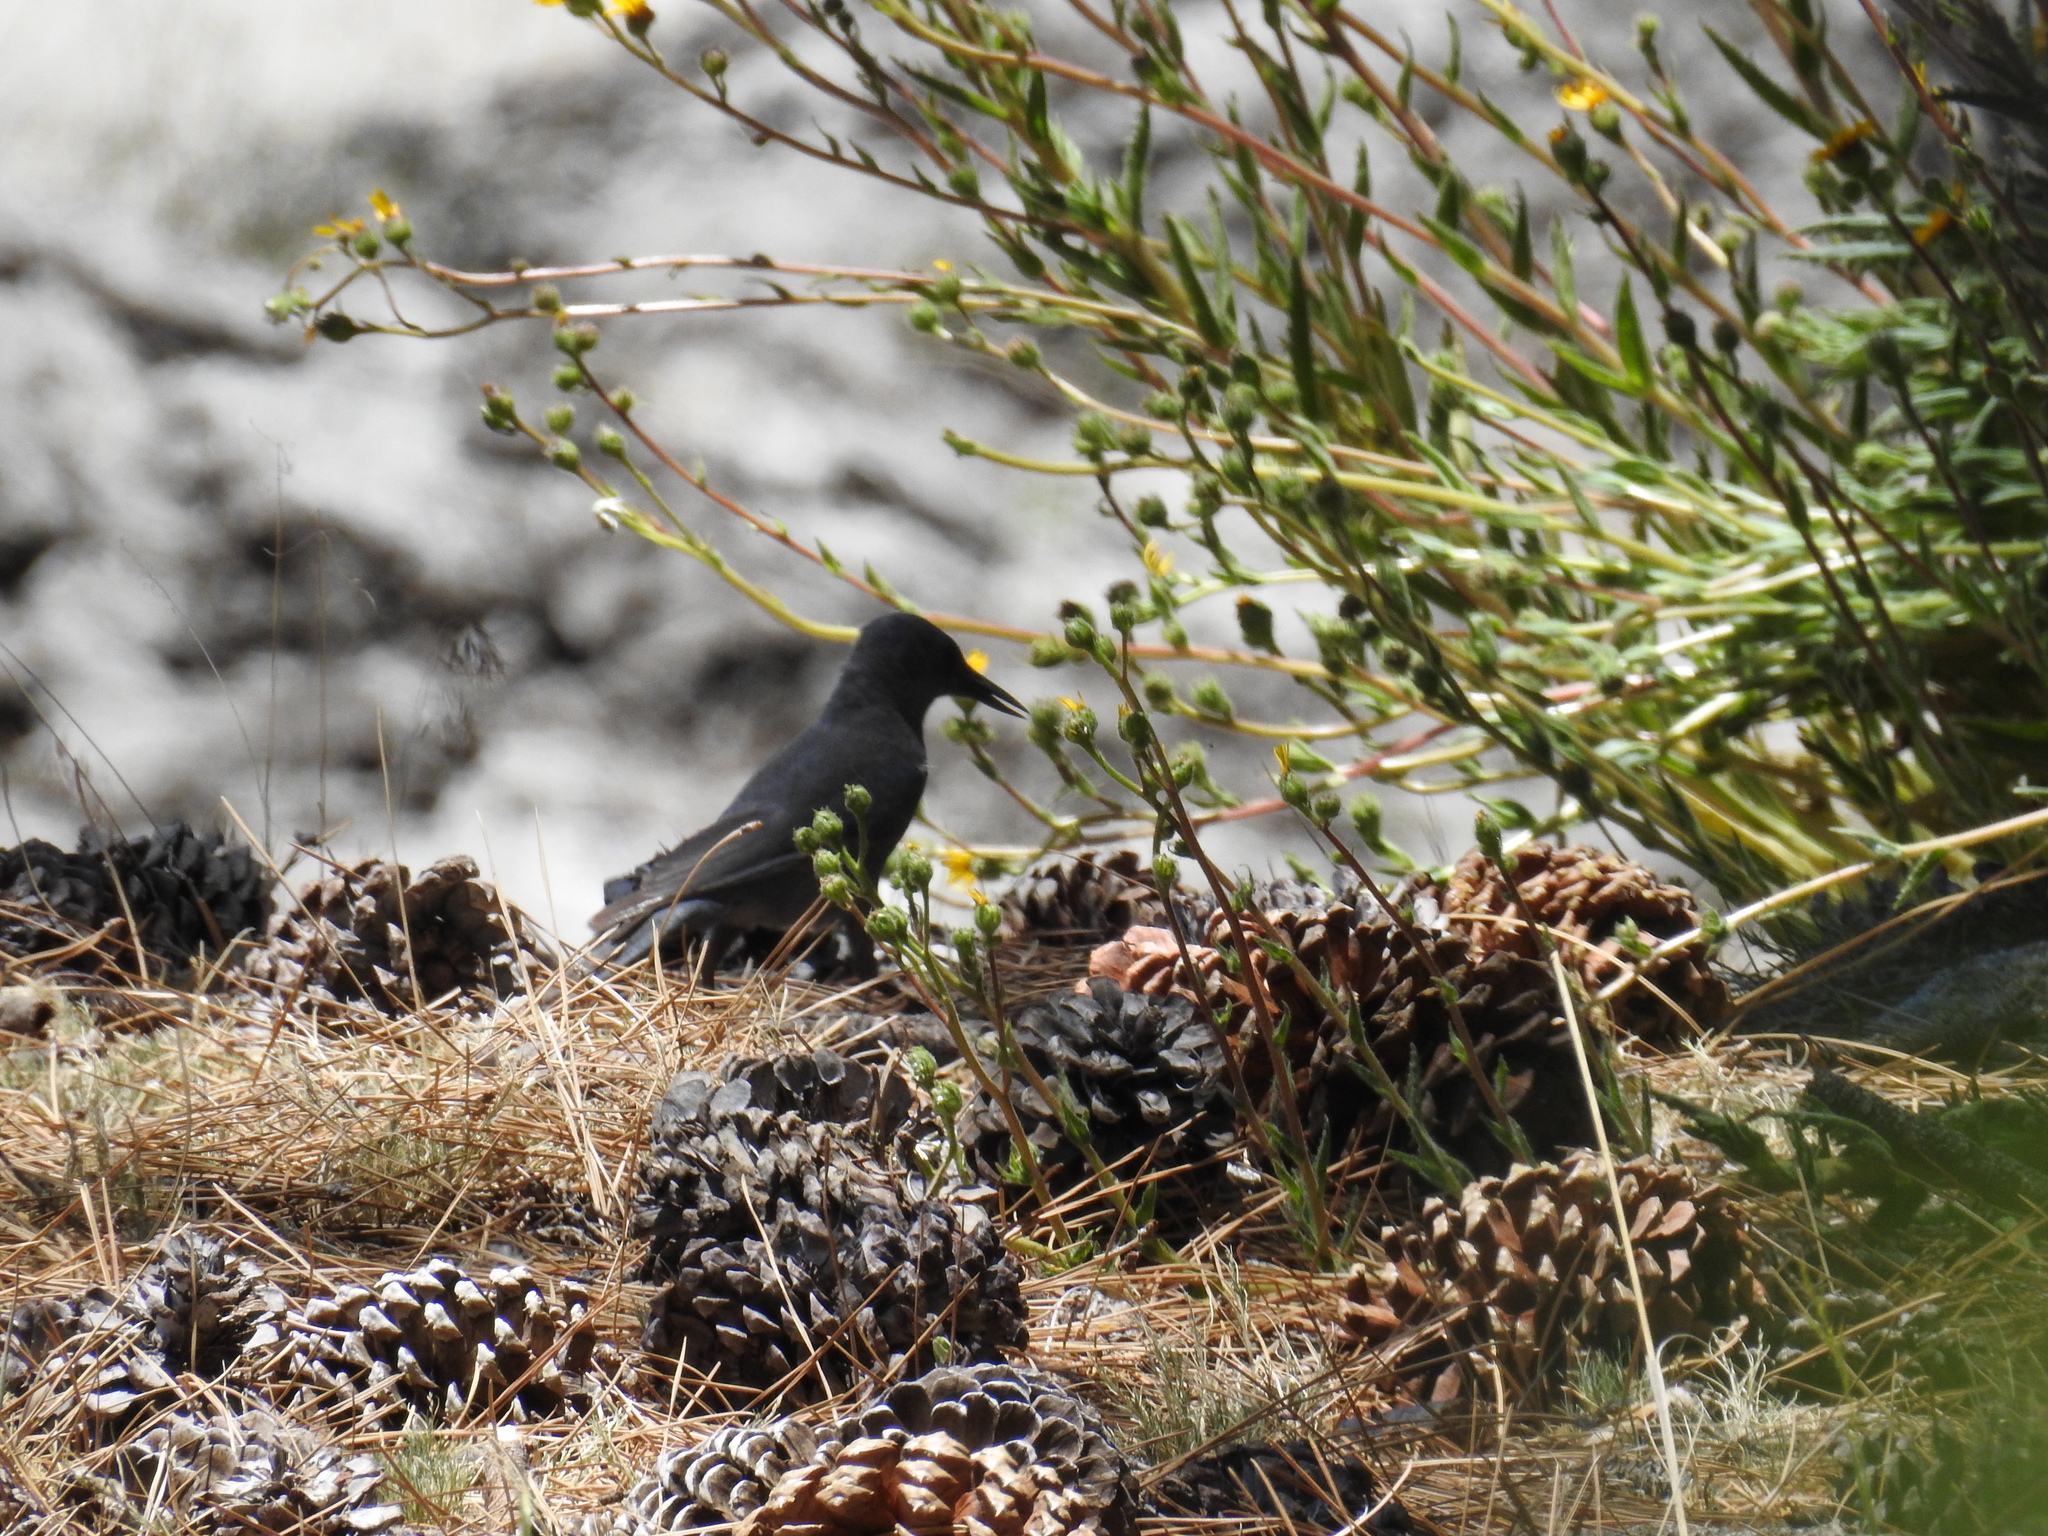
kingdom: Animalia
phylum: Chordata
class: Aves
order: Passeriformes
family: Corvidae
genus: Gymnorhinus
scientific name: Gymnorhinus cyanocephalus
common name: Pinyon jay
